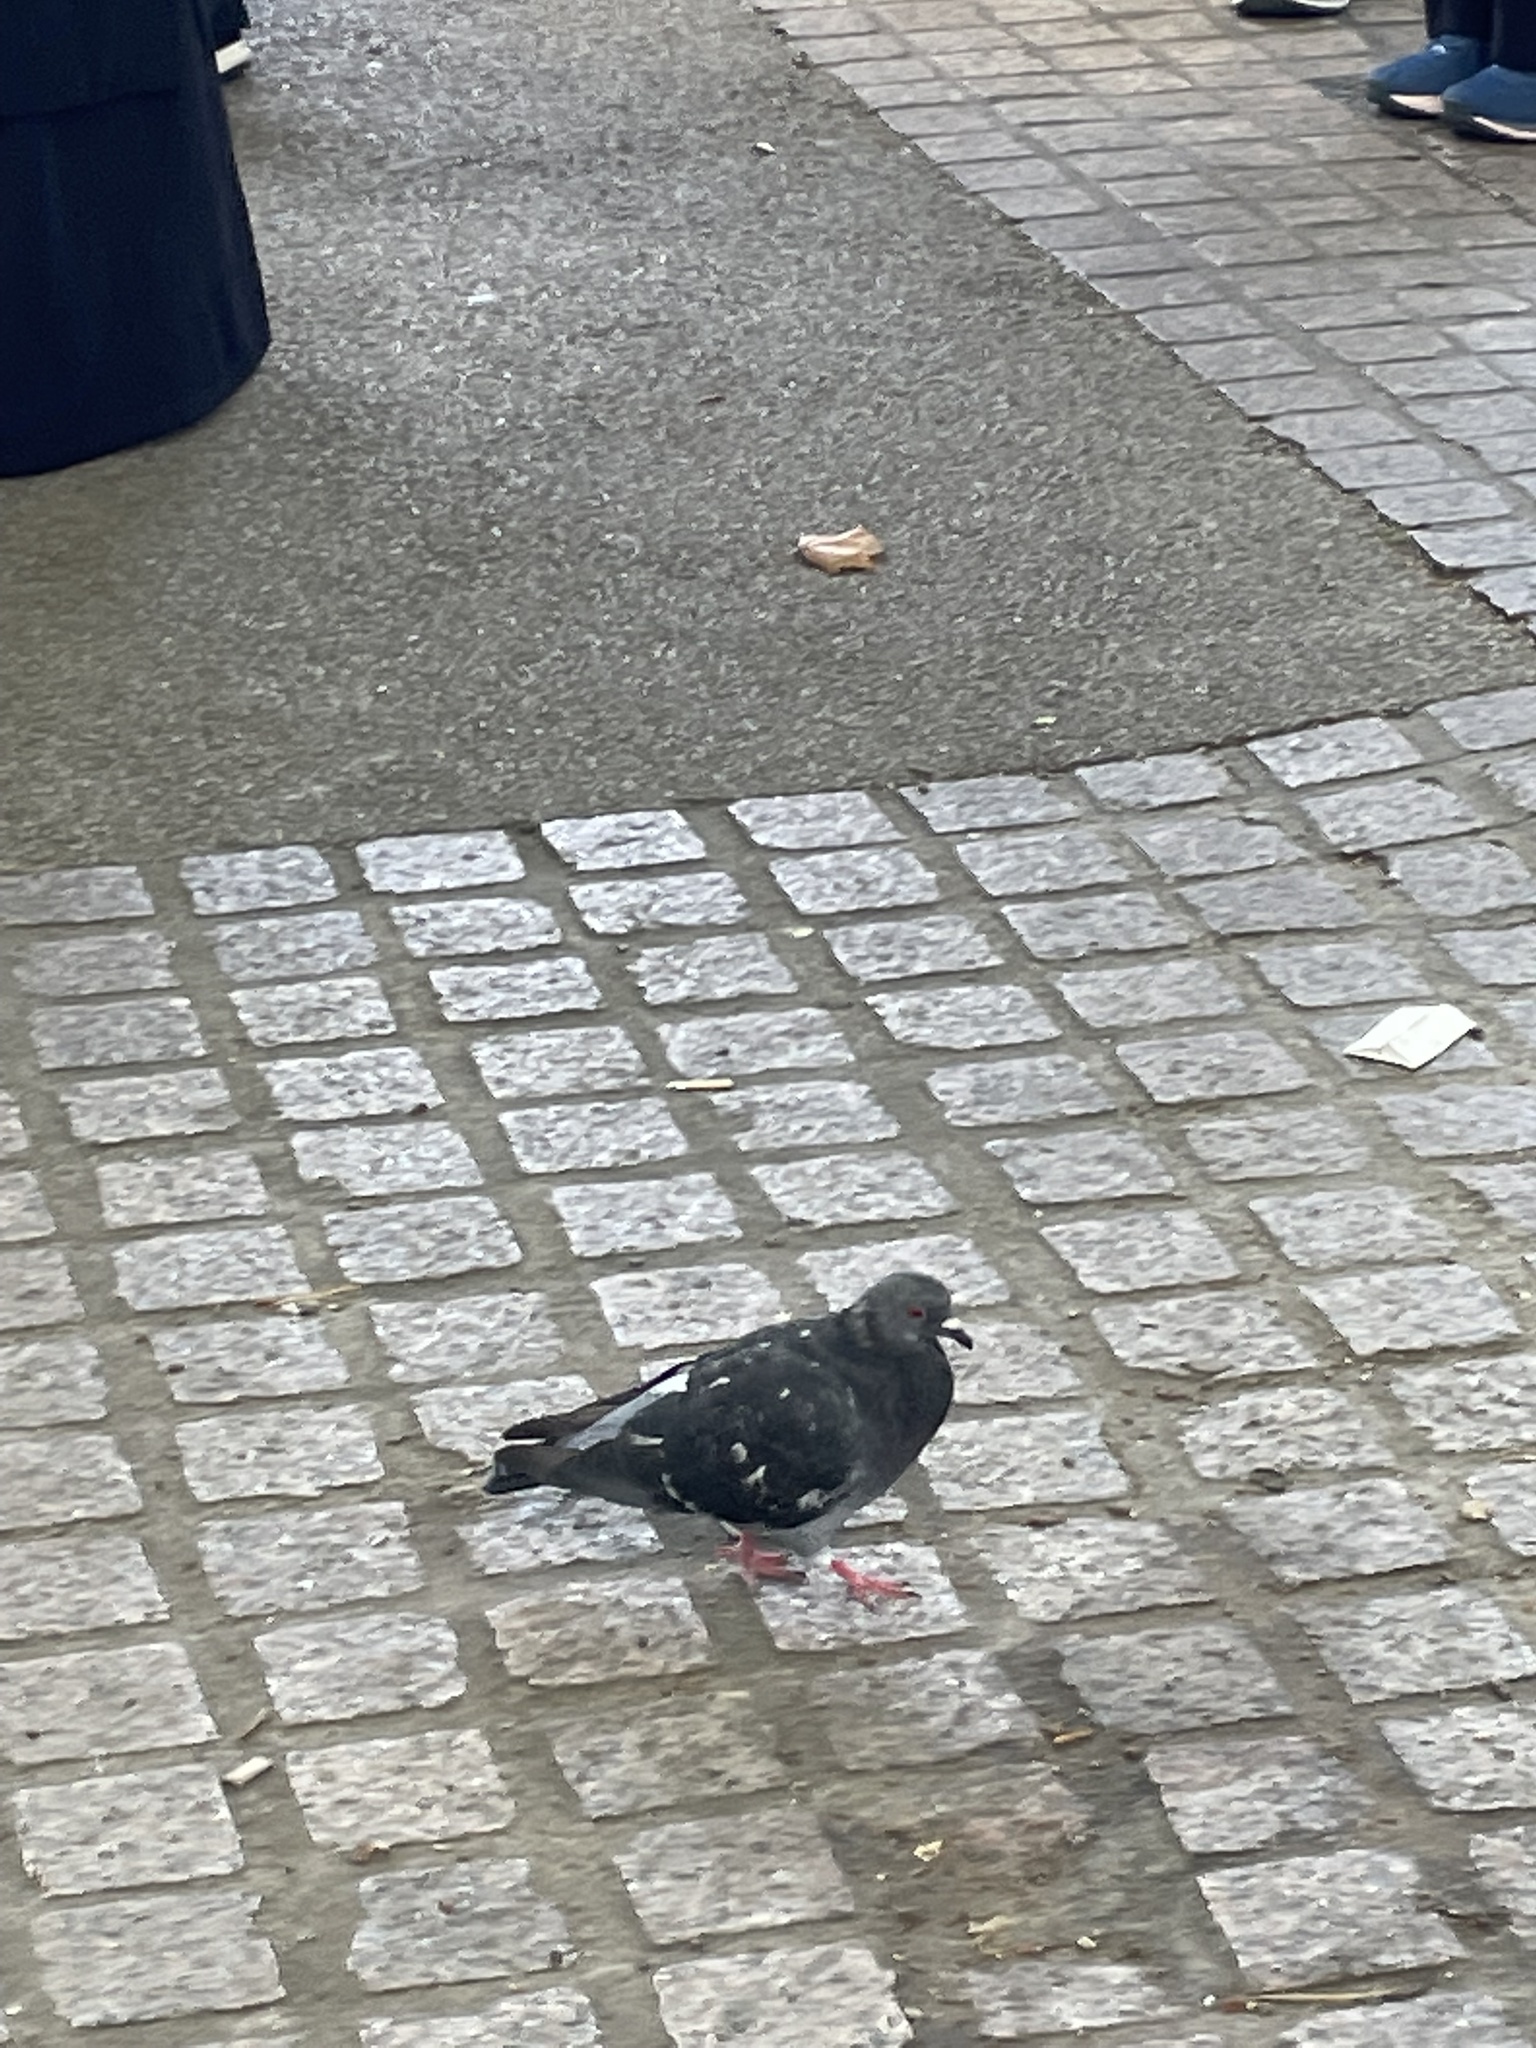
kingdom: Animalia
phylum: Chordata
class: Aves
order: Columbiformes
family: Columbidae
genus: Columba
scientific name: Columba livia
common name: Rock pigeon
